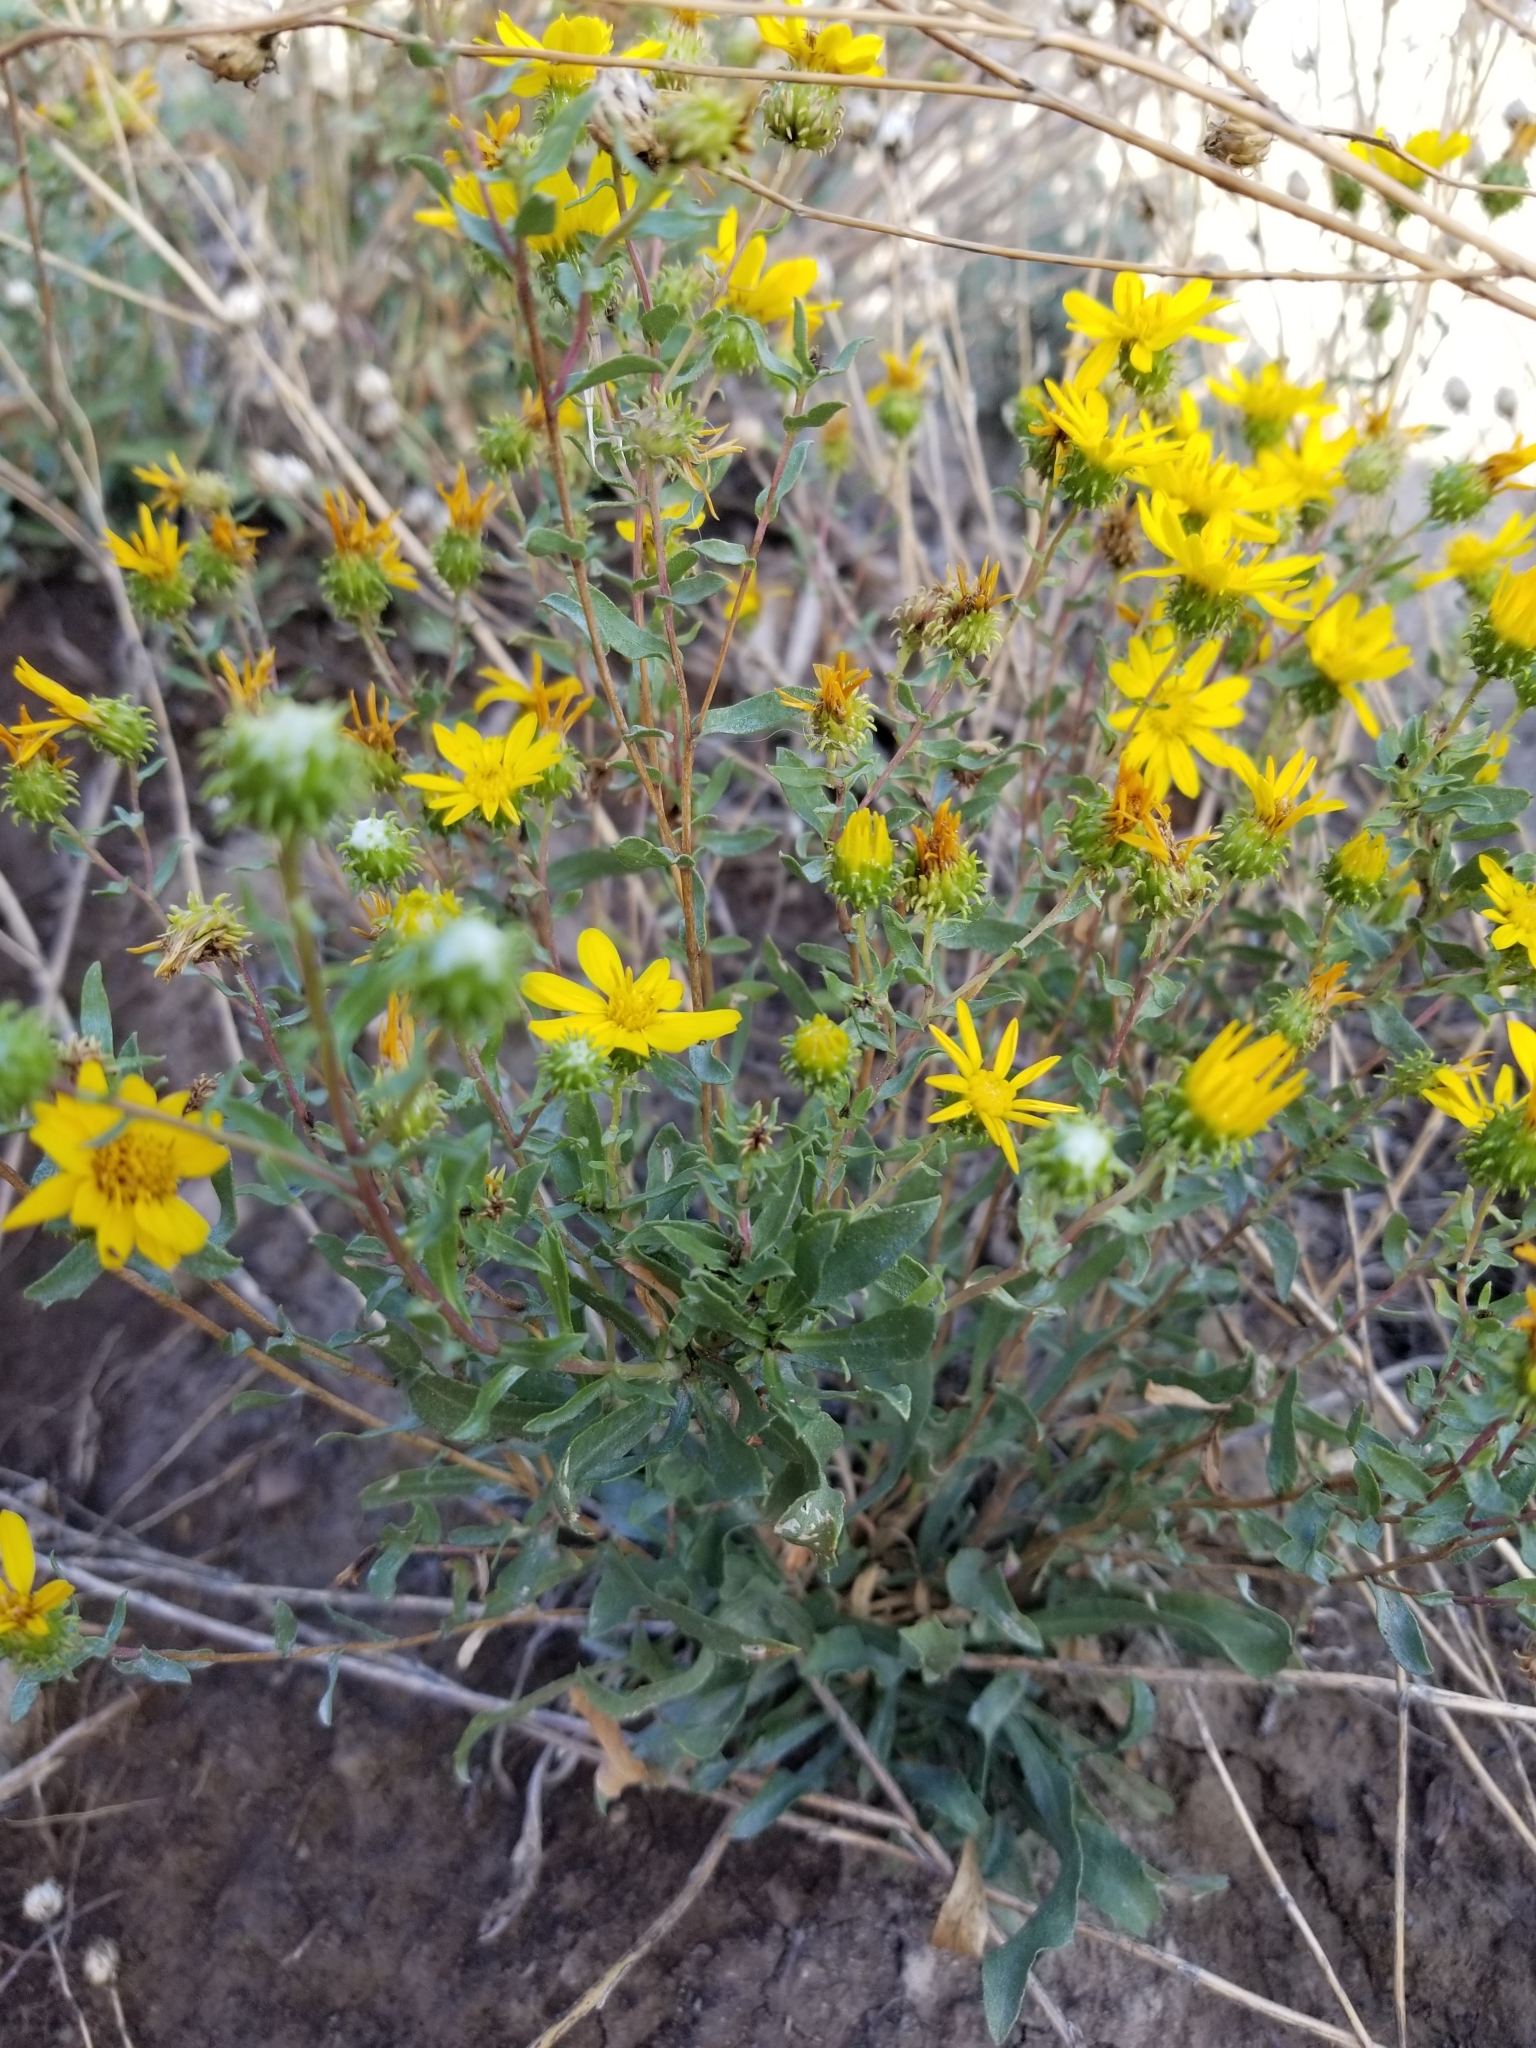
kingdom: Plantae
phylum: Tracheophyta
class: Magnoliopsida
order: Asterales
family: Asteraceae
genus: Grindelia
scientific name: Grindelia squarrosa
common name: Curly-cup gumweed
